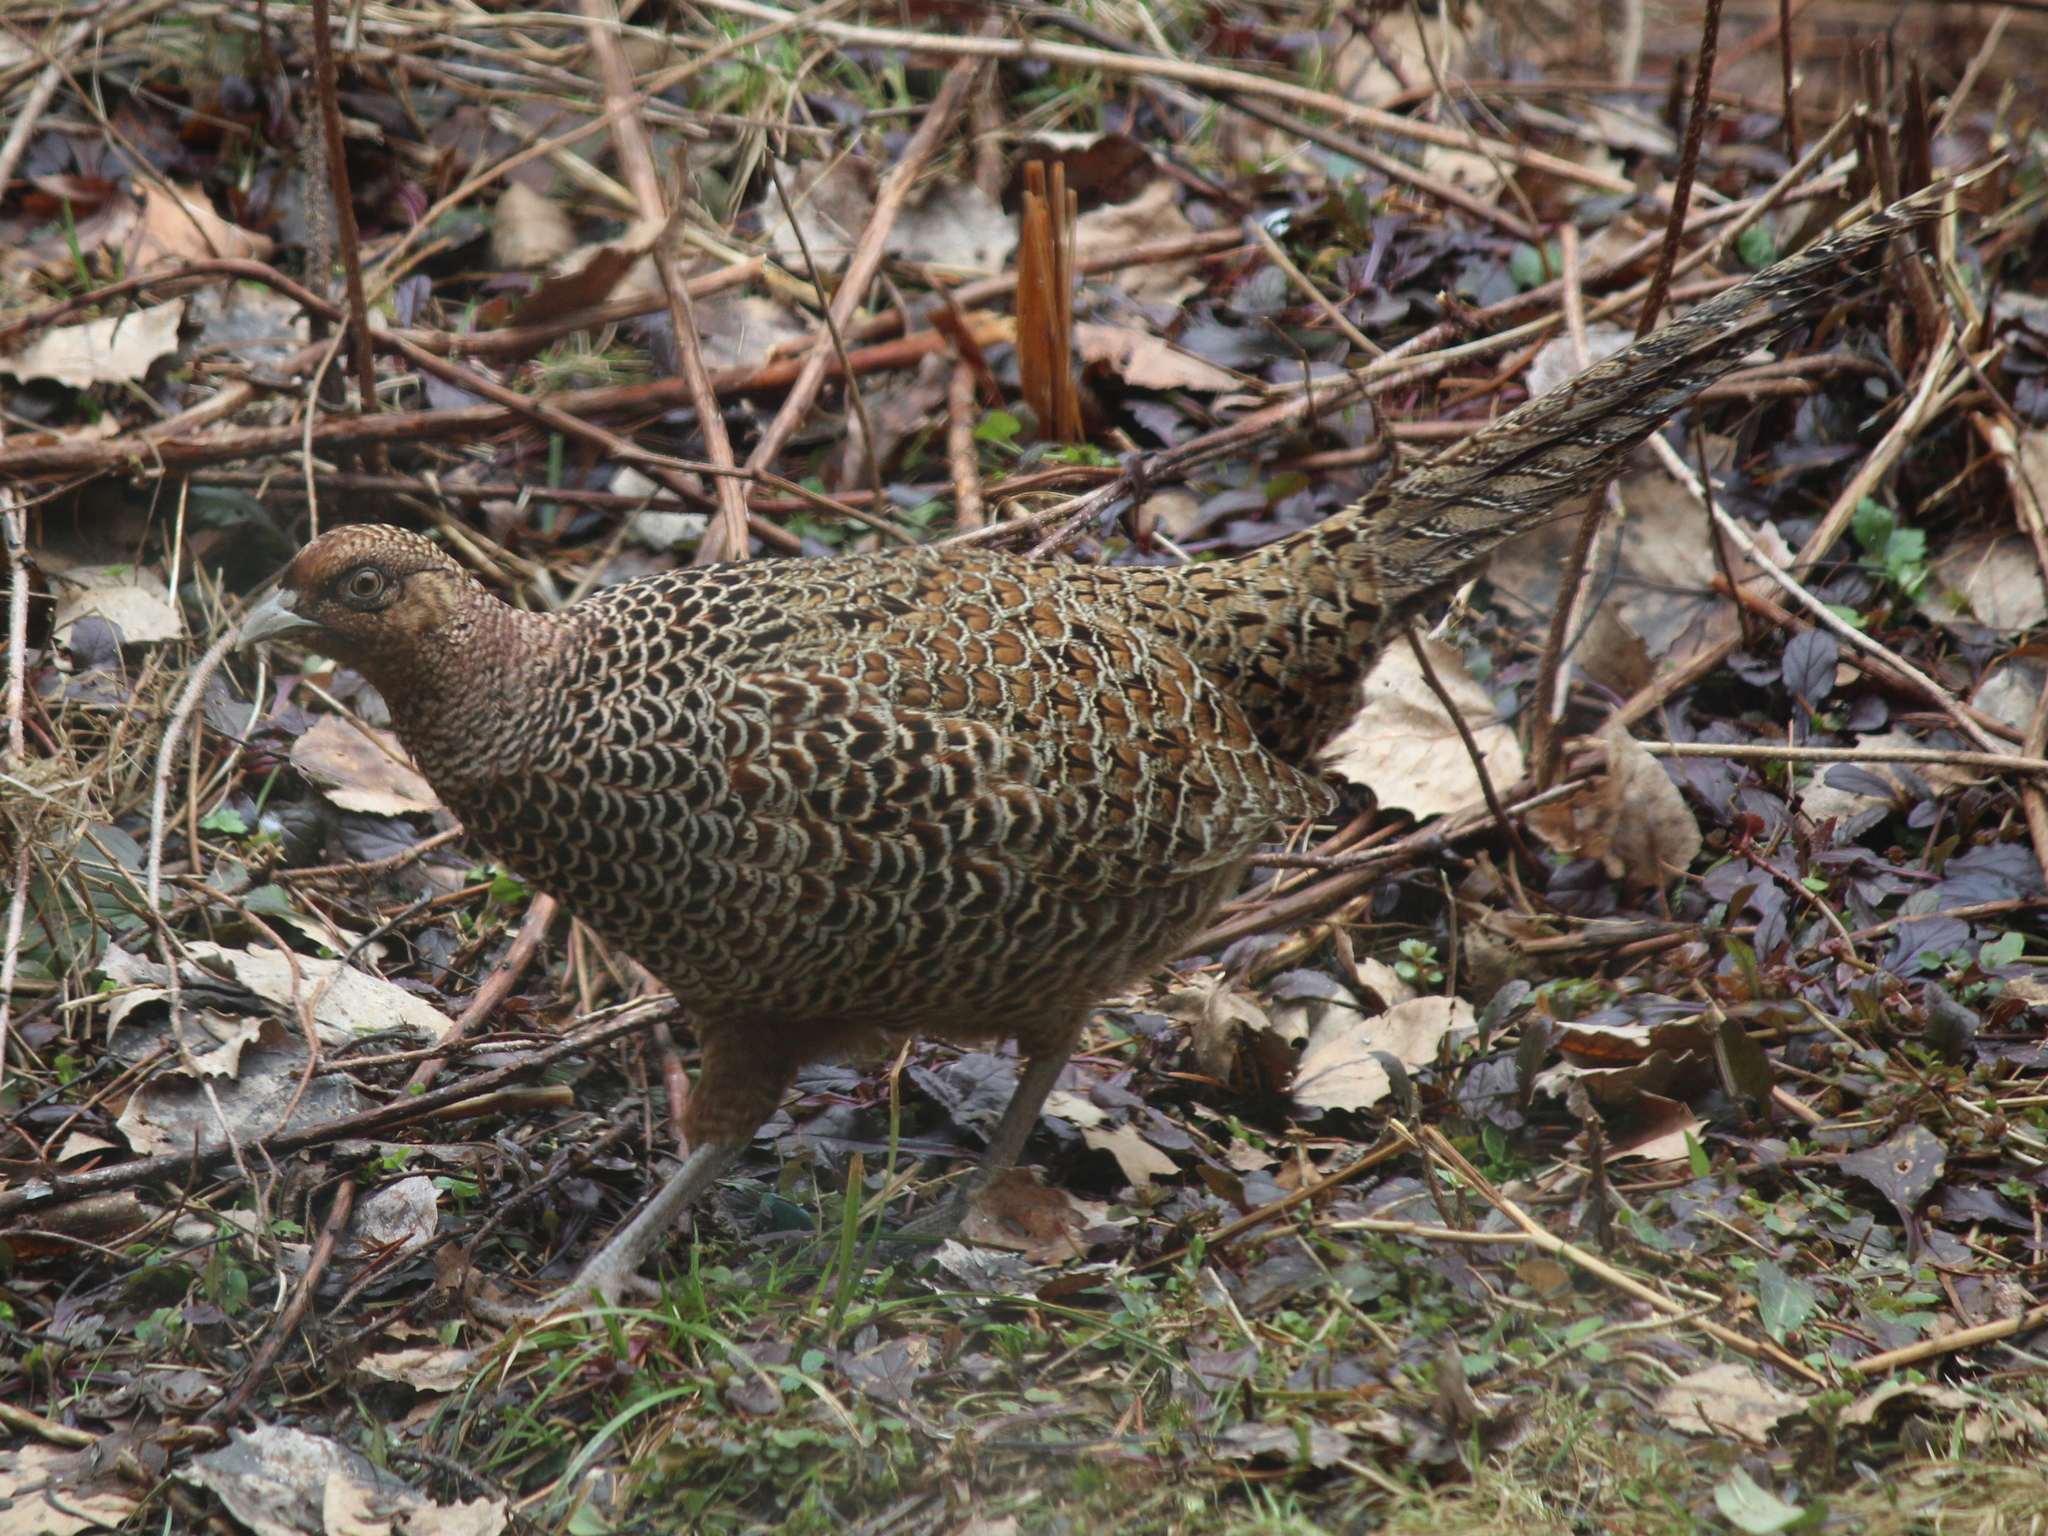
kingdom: Animalia
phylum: Chordata
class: Aves
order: Galliformes
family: Phasianidae
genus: Phasianus
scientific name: Phasianus colchicus
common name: Common pheasant
